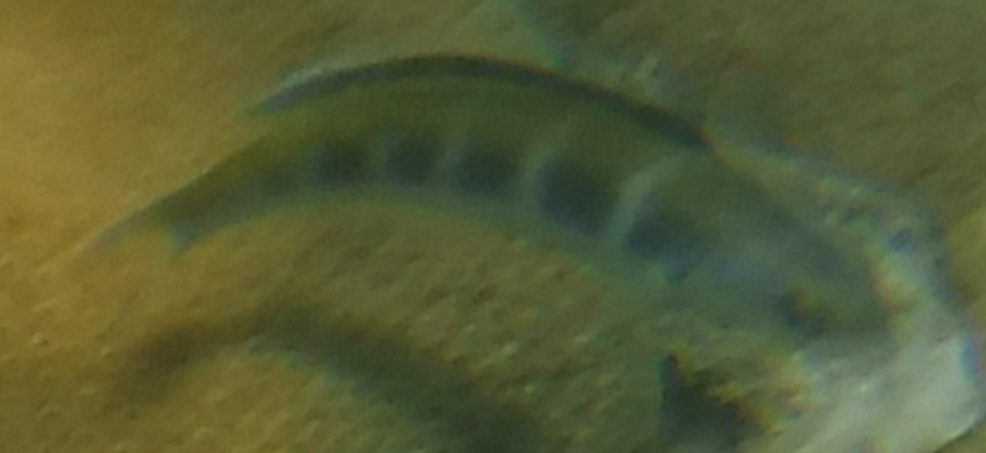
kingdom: Animalia
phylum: Chordata
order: Perciformes
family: Labridae
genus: Thalassoma
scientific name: Thalassoma bifasciatum
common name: Bluehead wrasse
